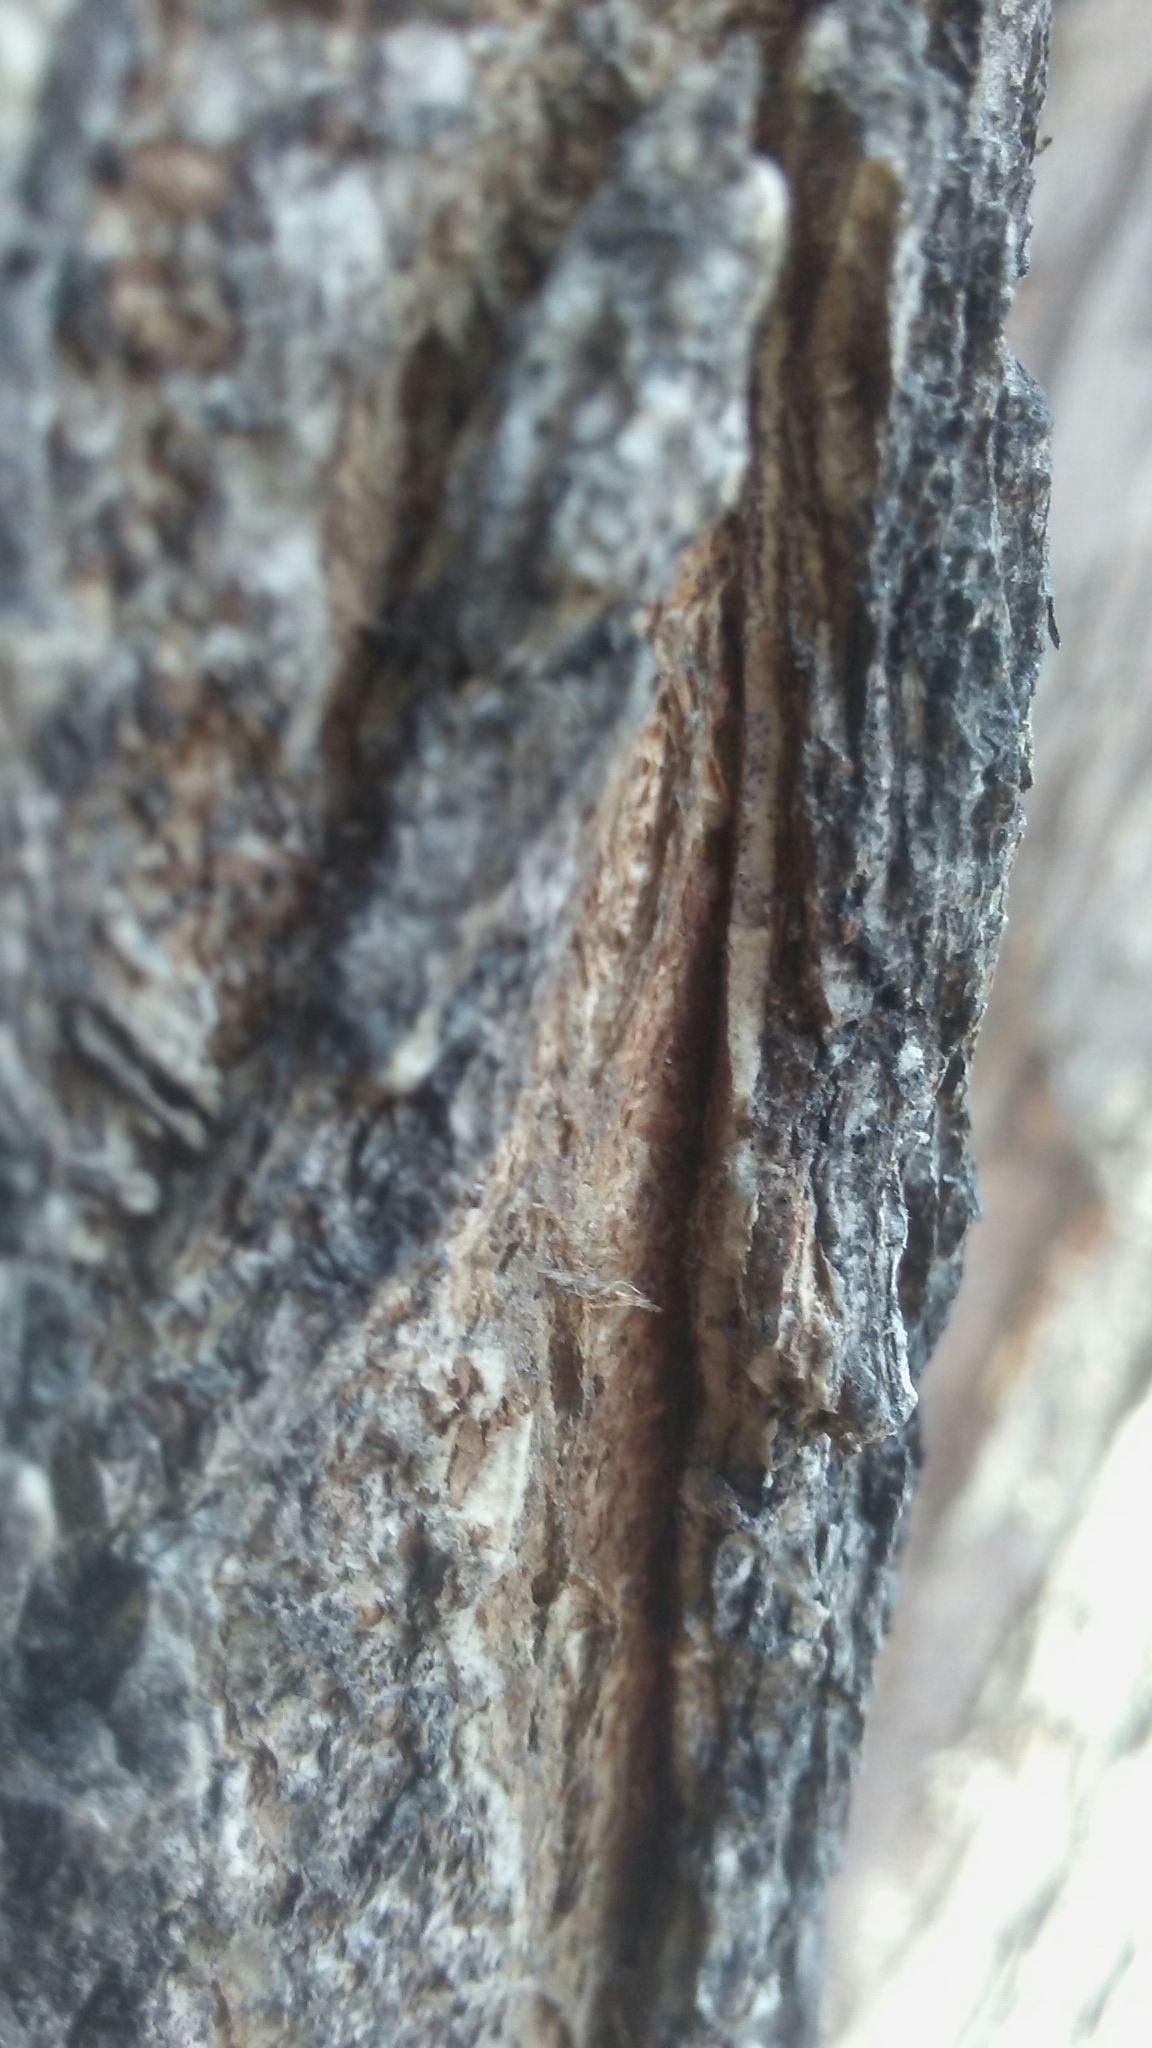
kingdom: Plantae
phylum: Tracheophyta
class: Magnoliopsida
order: Rosales
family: Ulmaceae
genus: Ulmus
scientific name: Ulmus americana
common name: American elm
